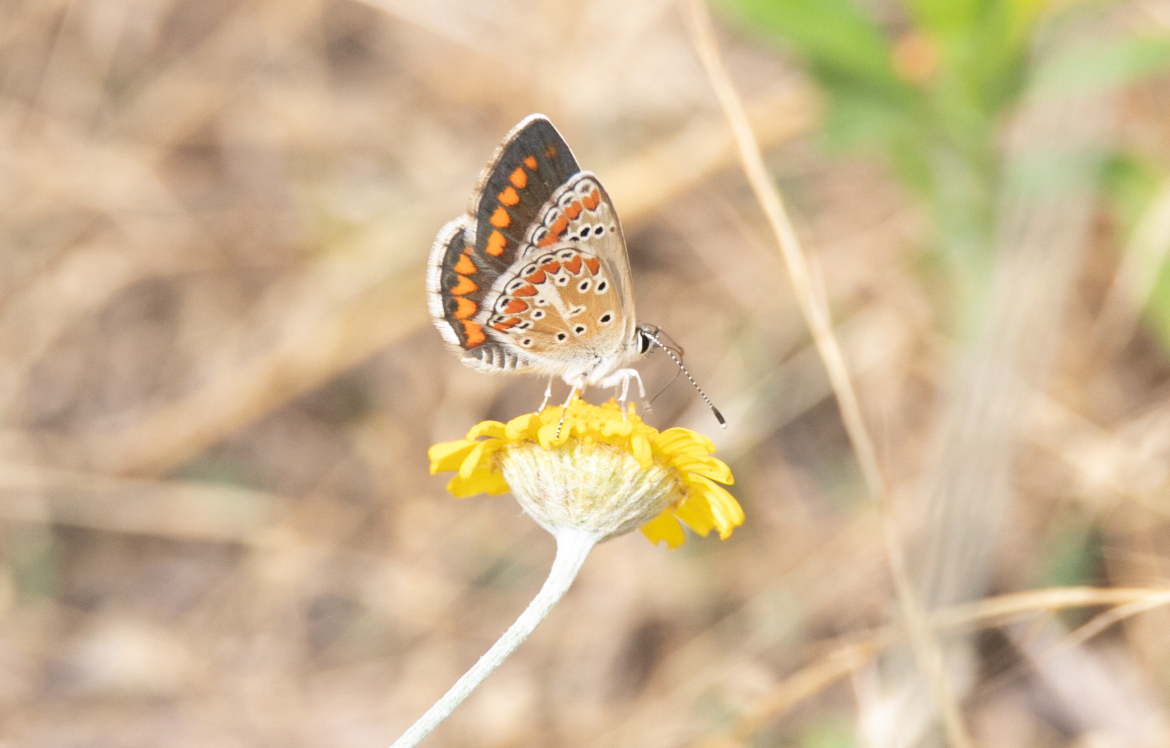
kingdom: Animalia
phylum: Arthropoda
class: Insecta
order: Lepidoptera
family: Lycaenidae
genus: Aricia
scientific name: Aricia agestis
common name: Brown argus
